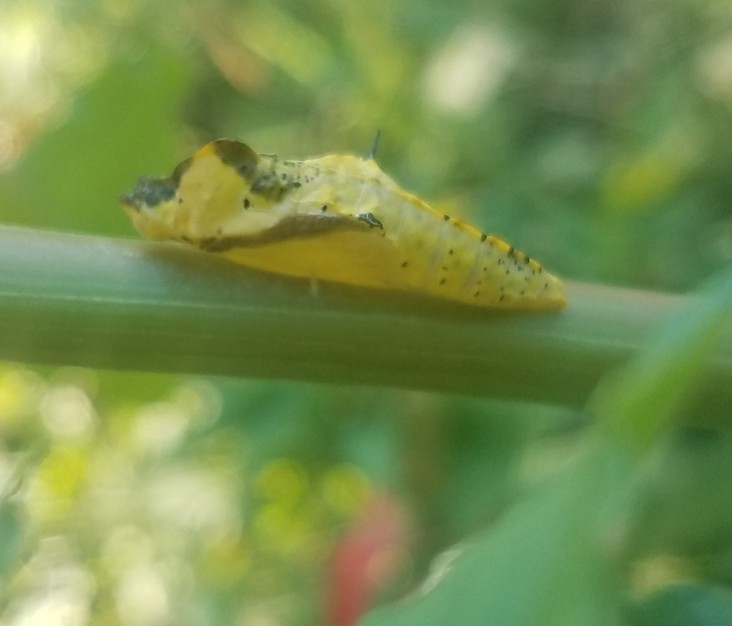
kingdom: Animalia
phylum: Arthropoda
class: Insecta
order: Lepidoptera
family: Pieridae
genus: Ascia
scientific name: Ascia monuste
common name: Great southern white
